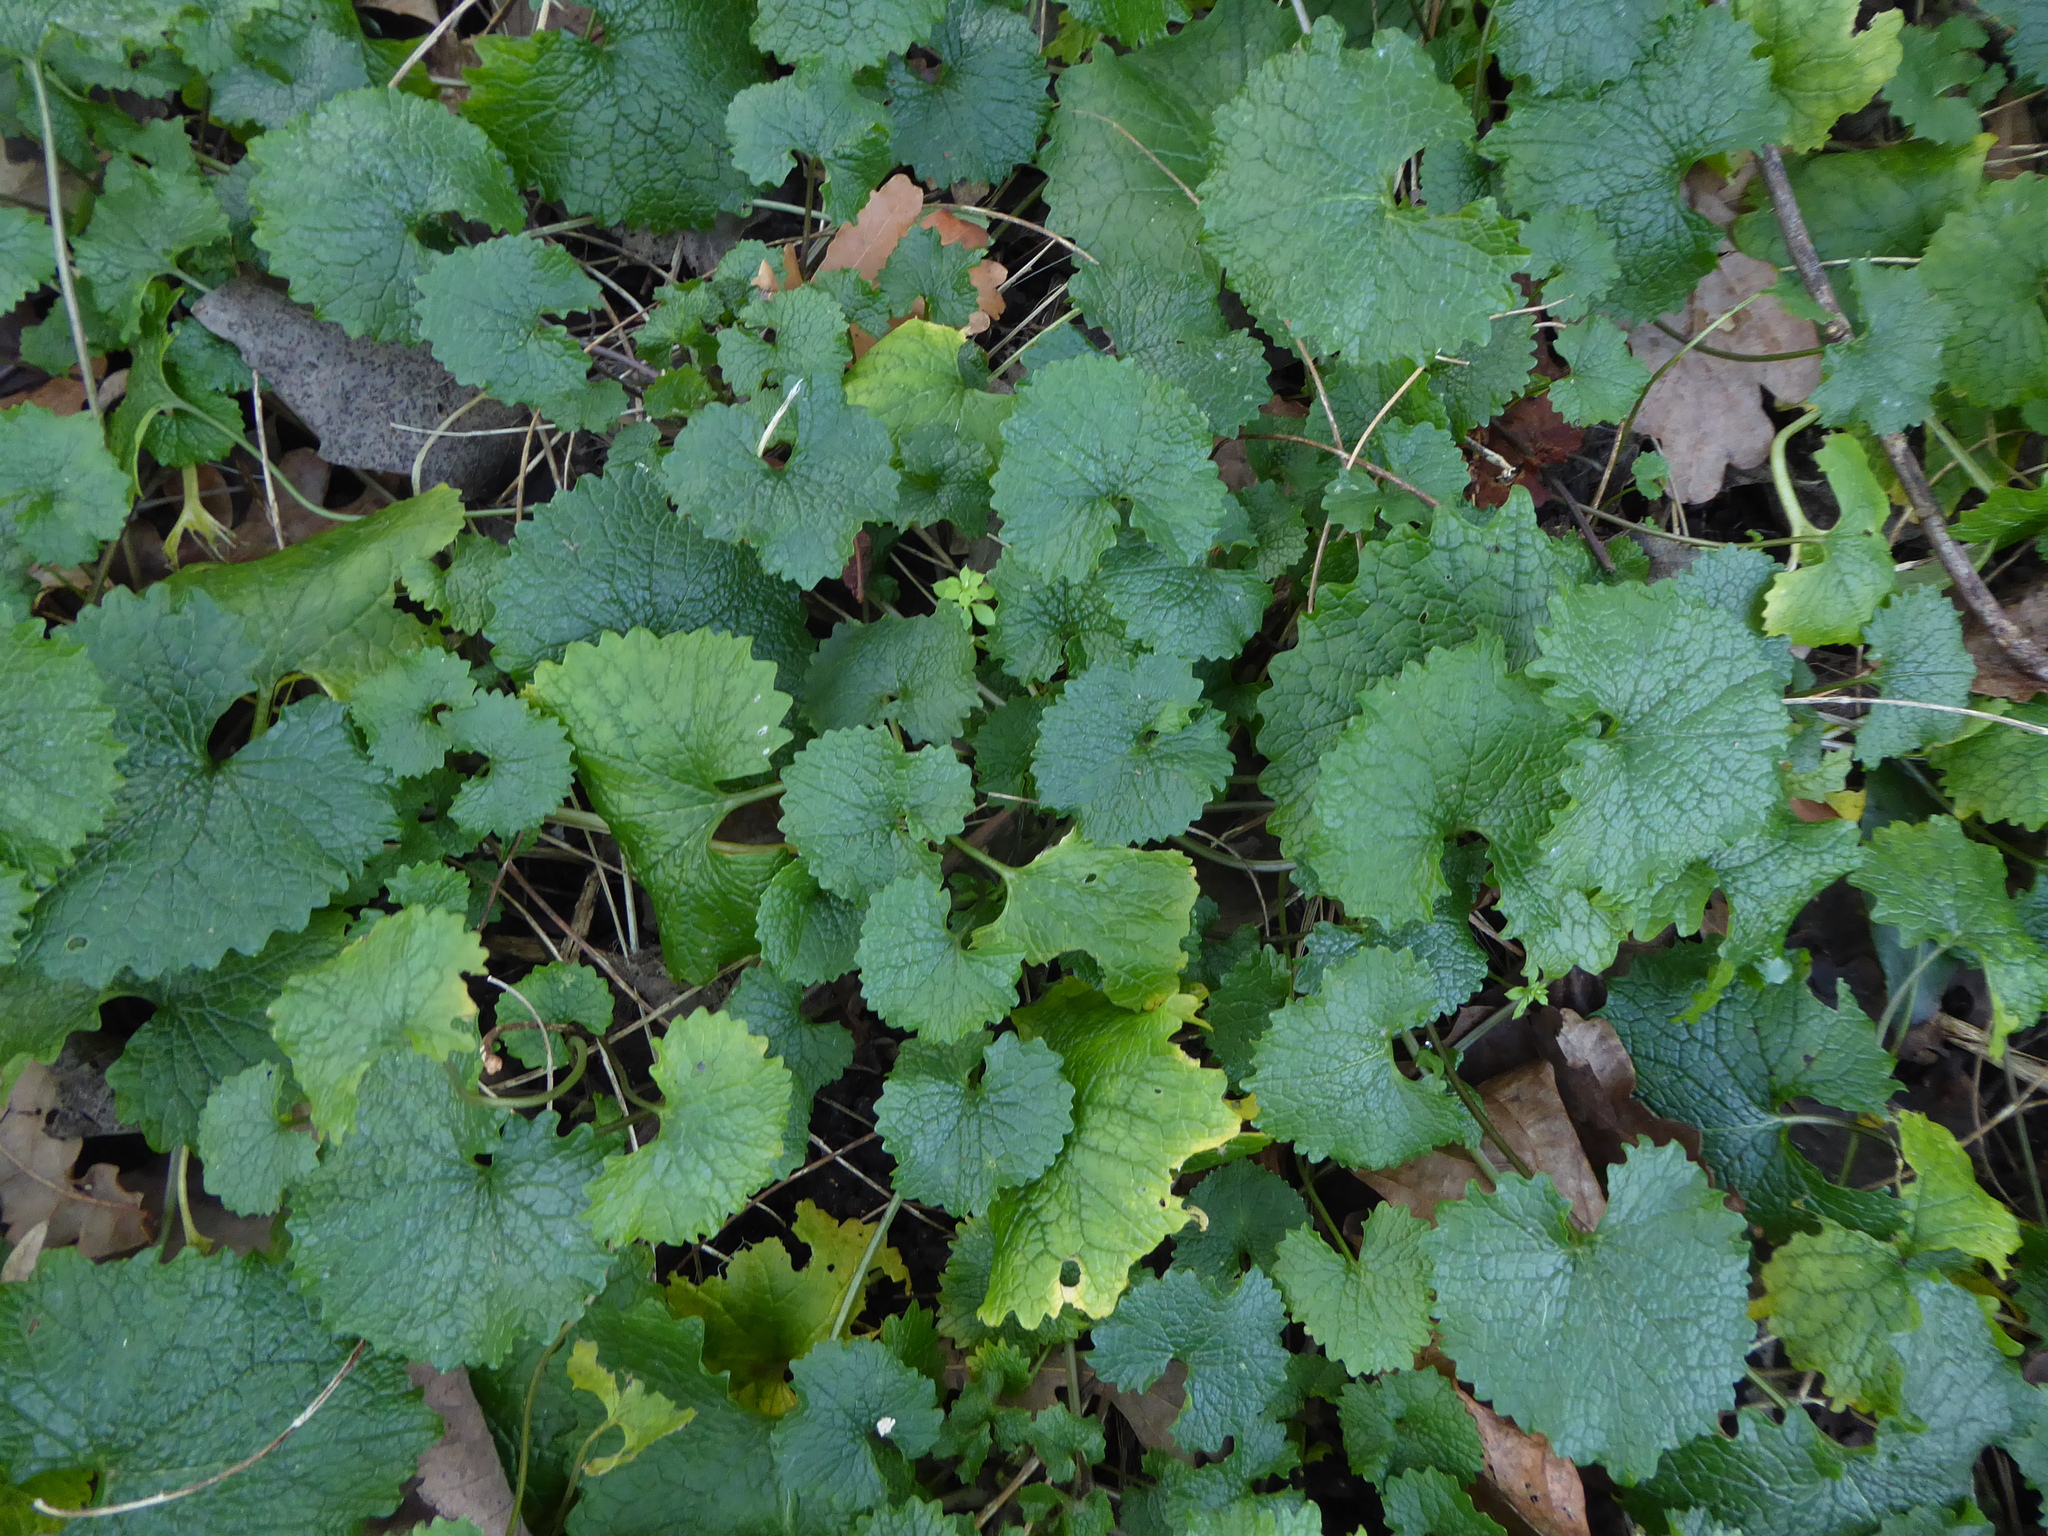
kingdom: Plantae
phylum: Tracheophyta
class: Magnoliopsida
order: Brassicales
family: Brassicaceae
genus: Alliaria
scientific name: Alliaria petiolata
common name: Garlic mustard
